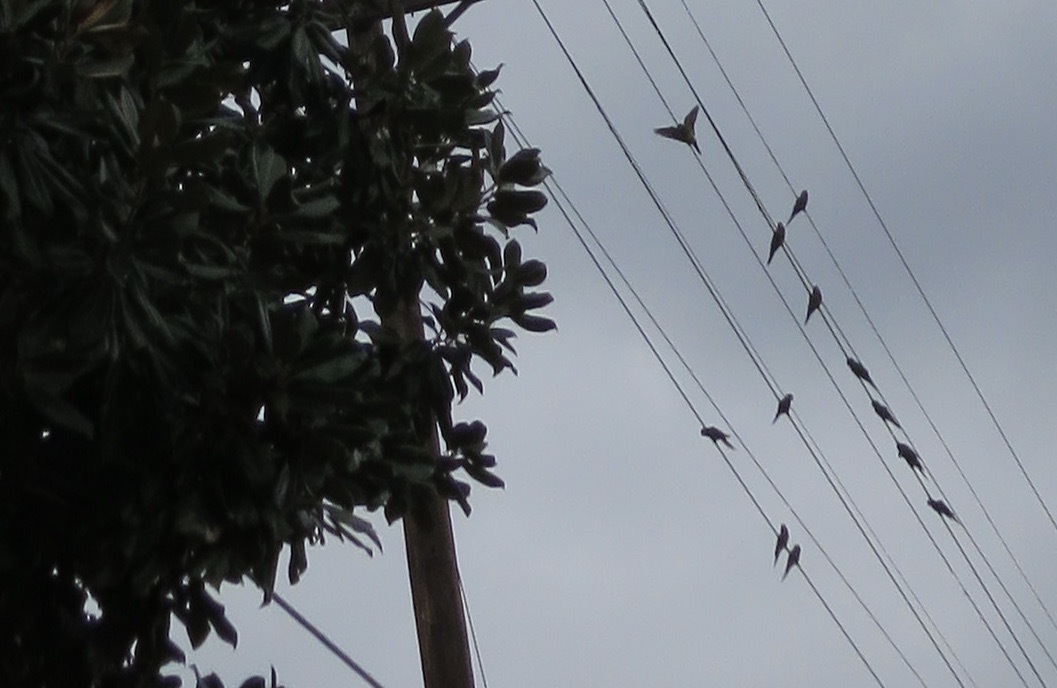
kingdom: Animalia
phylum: Chordata
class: Aves
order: Psittaciformes
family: Psittacidae
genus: Psittacara
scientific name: Psittacara
